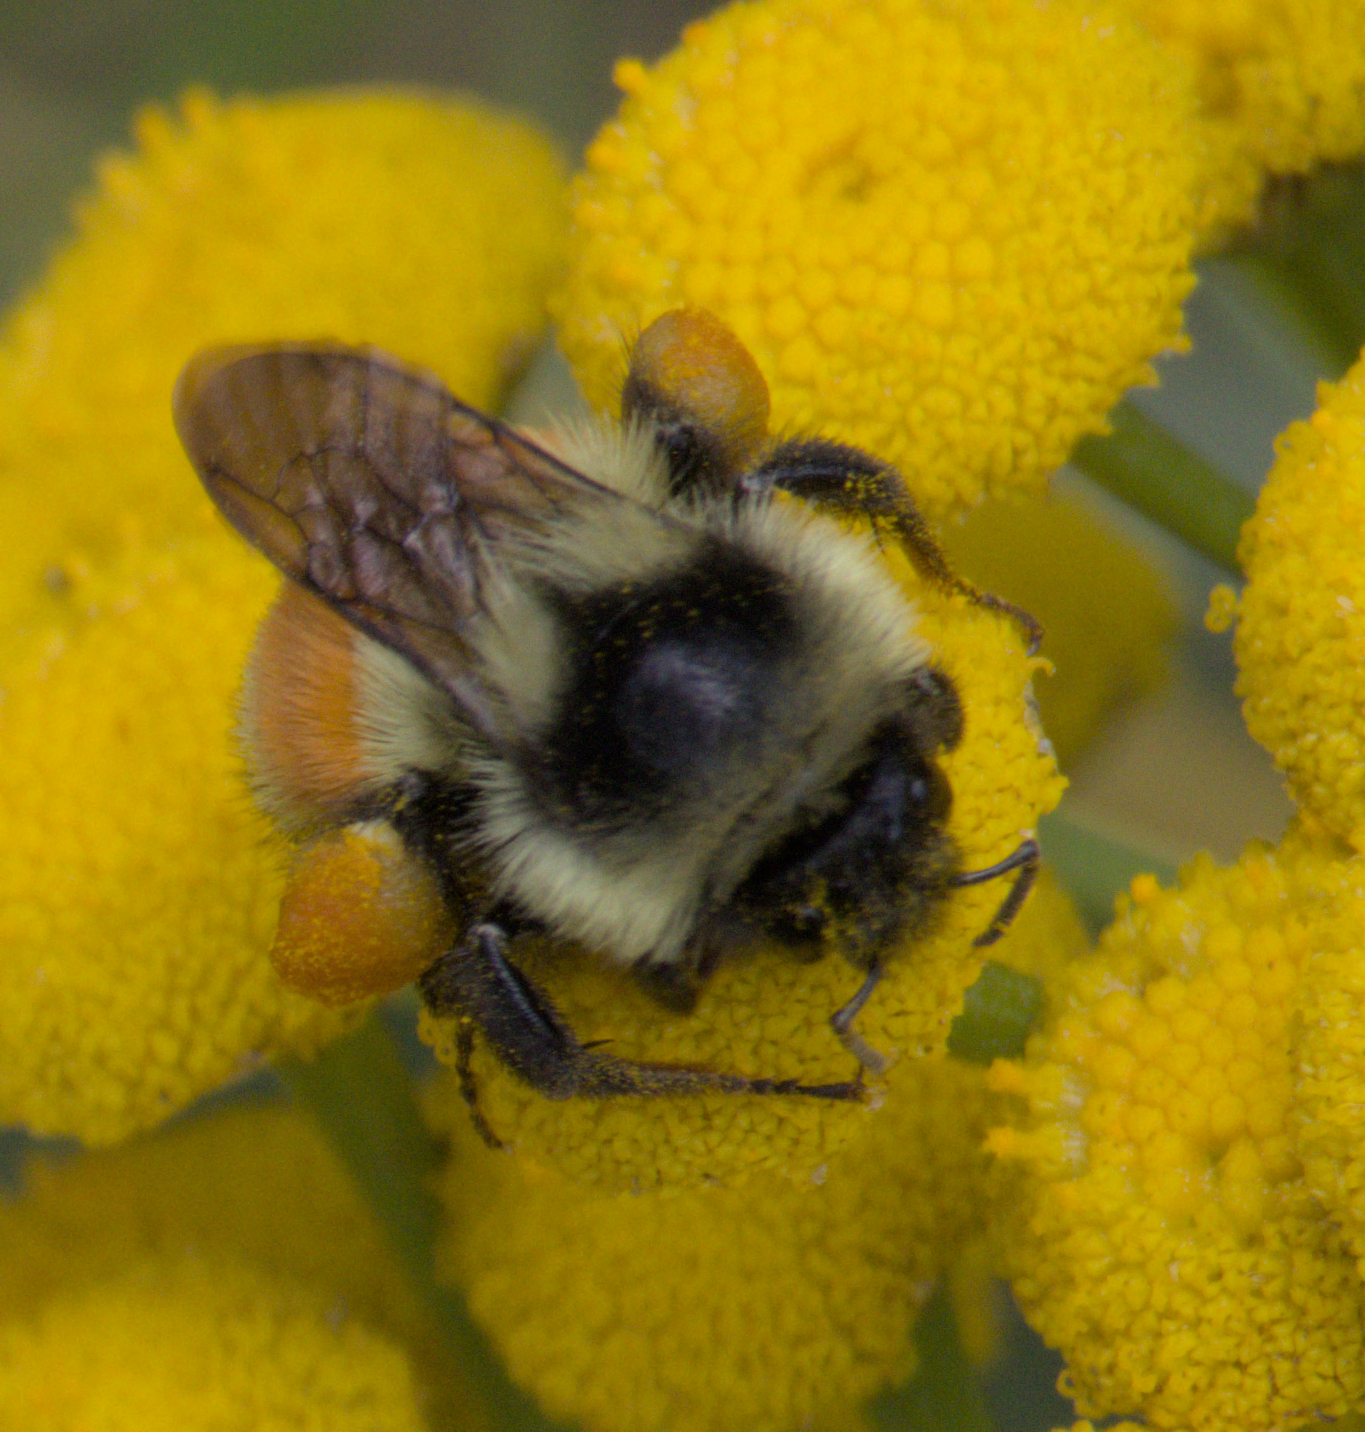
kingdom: Animalia
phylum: Arthropoda
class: Insecta
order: Hymenoptera
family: Apidae
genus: Bombus
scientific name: Bombus ternarius
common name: Tri-colored bumble bee
